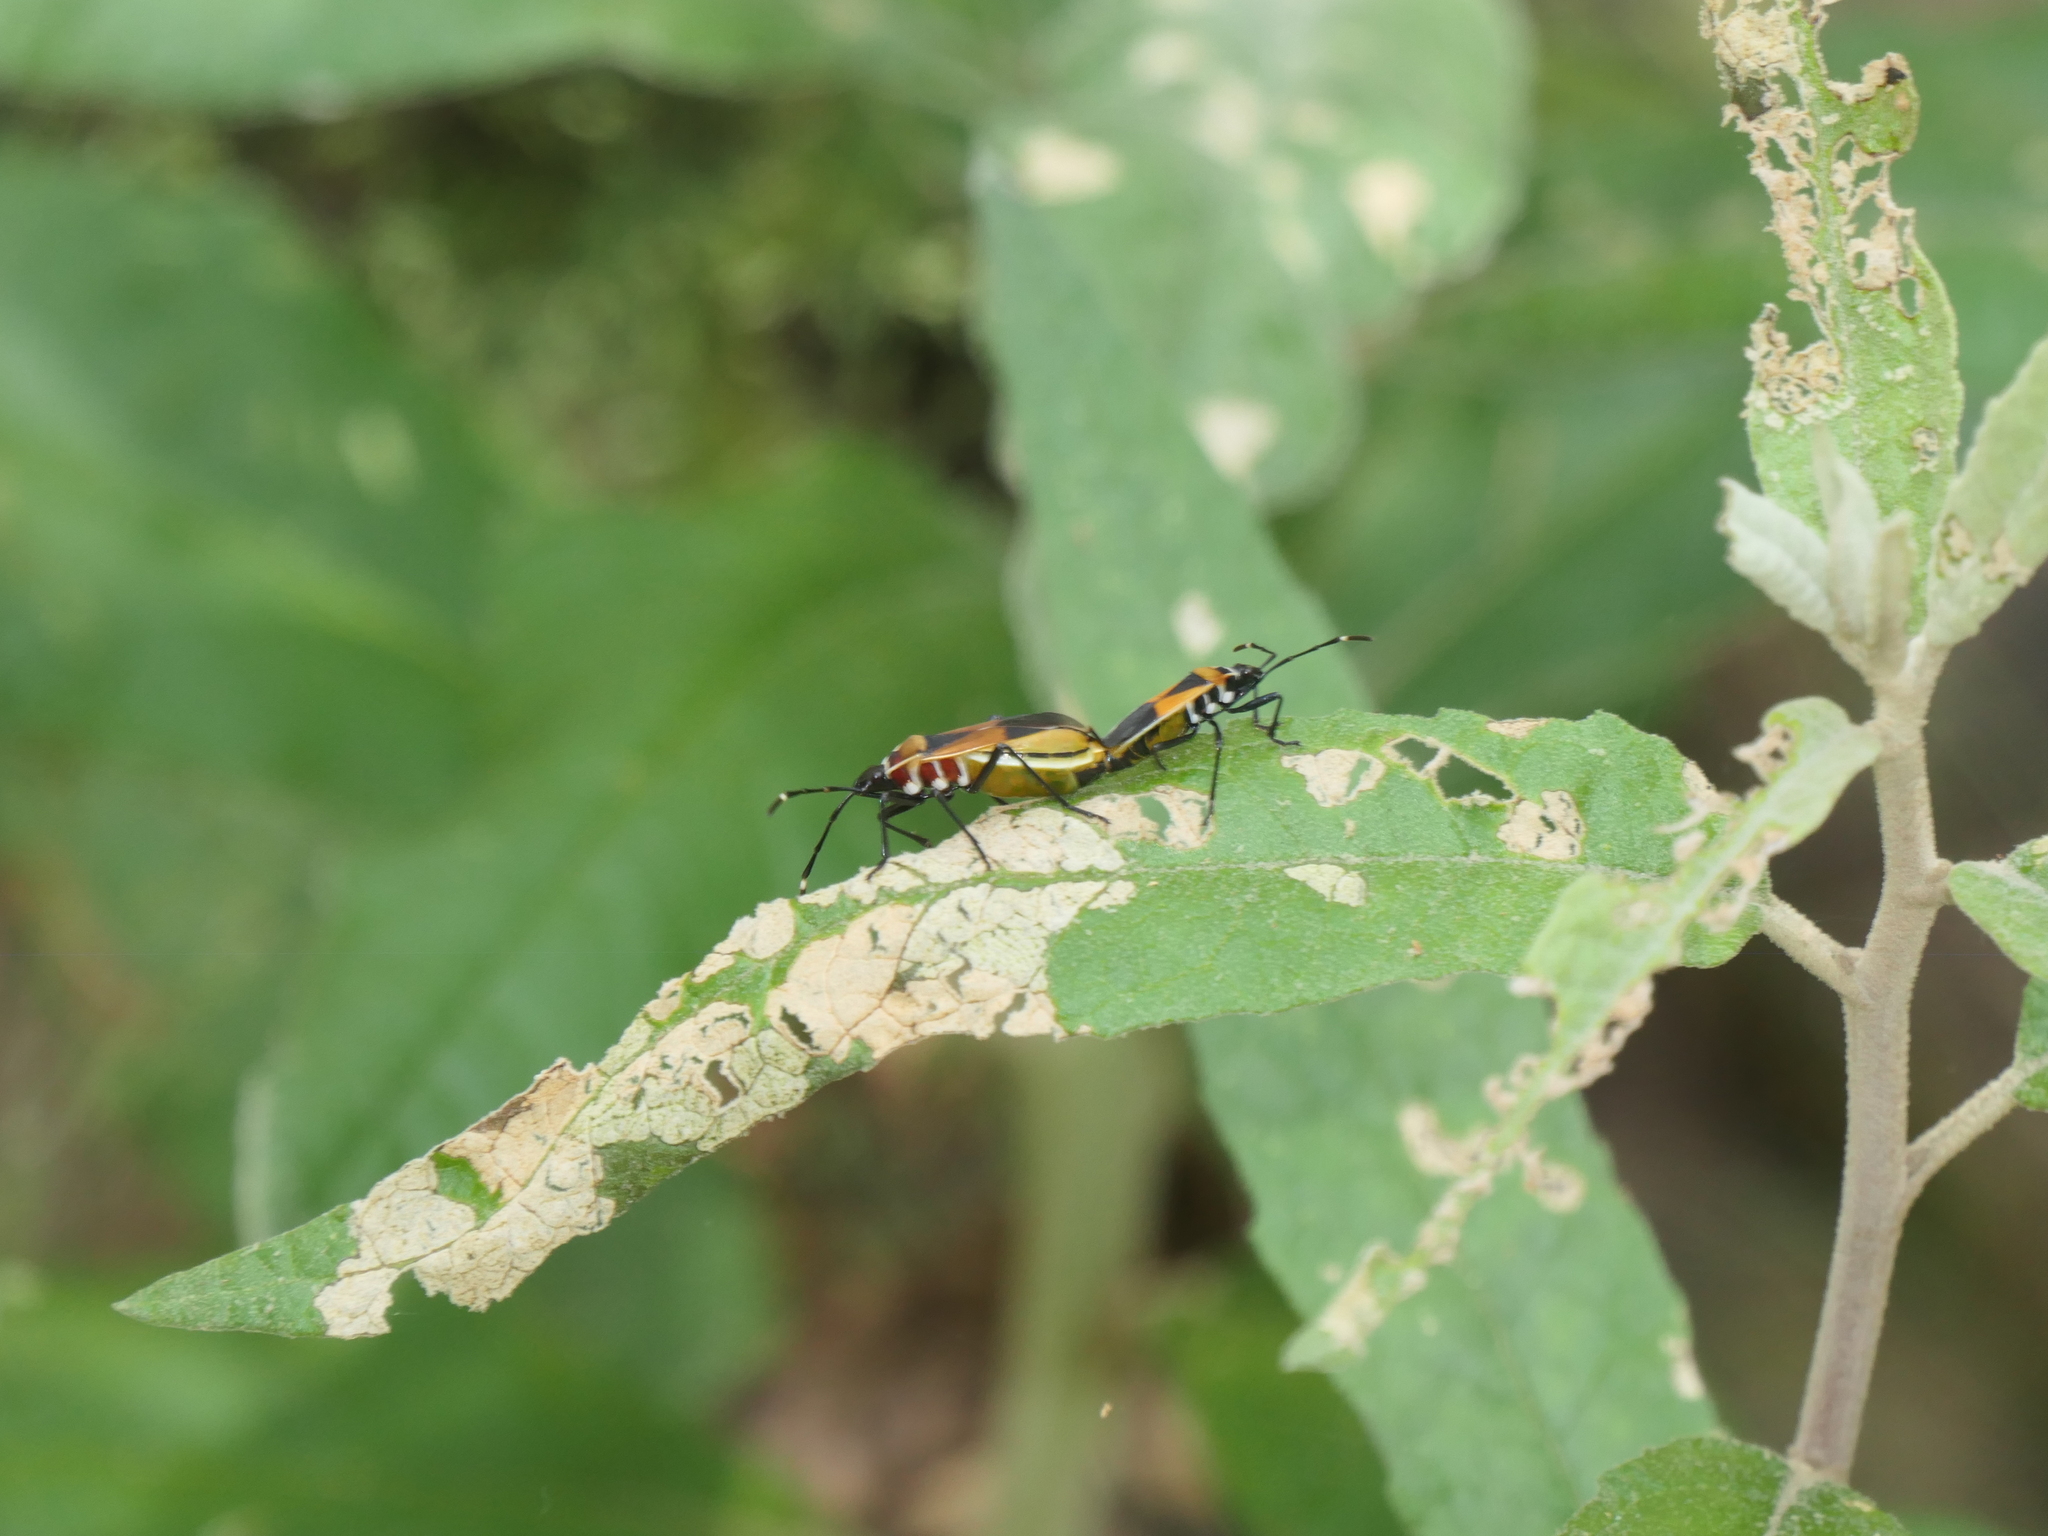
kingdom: Animalia
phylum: Arthropoda
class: Insecta
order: Hemiptera
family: Pyrrhocoridae
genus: Dindymus
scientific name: Dindymus
